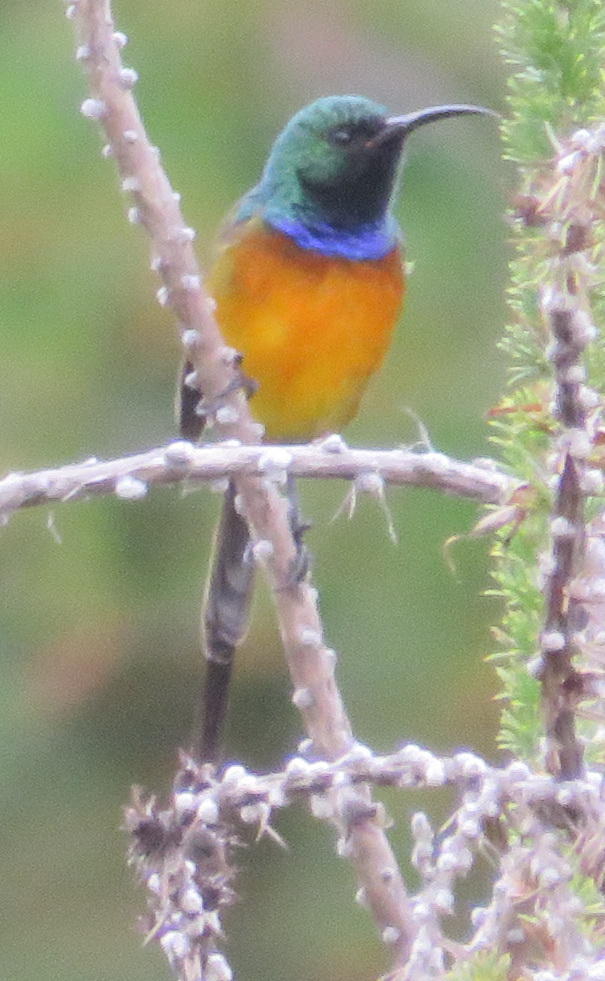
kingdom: Animalia
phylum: Chordata
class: Aves
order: Passeriformes
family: Nectariniidae
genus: Anthobaphes
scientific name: Anthobaphes violacea
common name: Orange-breasted sunbird
